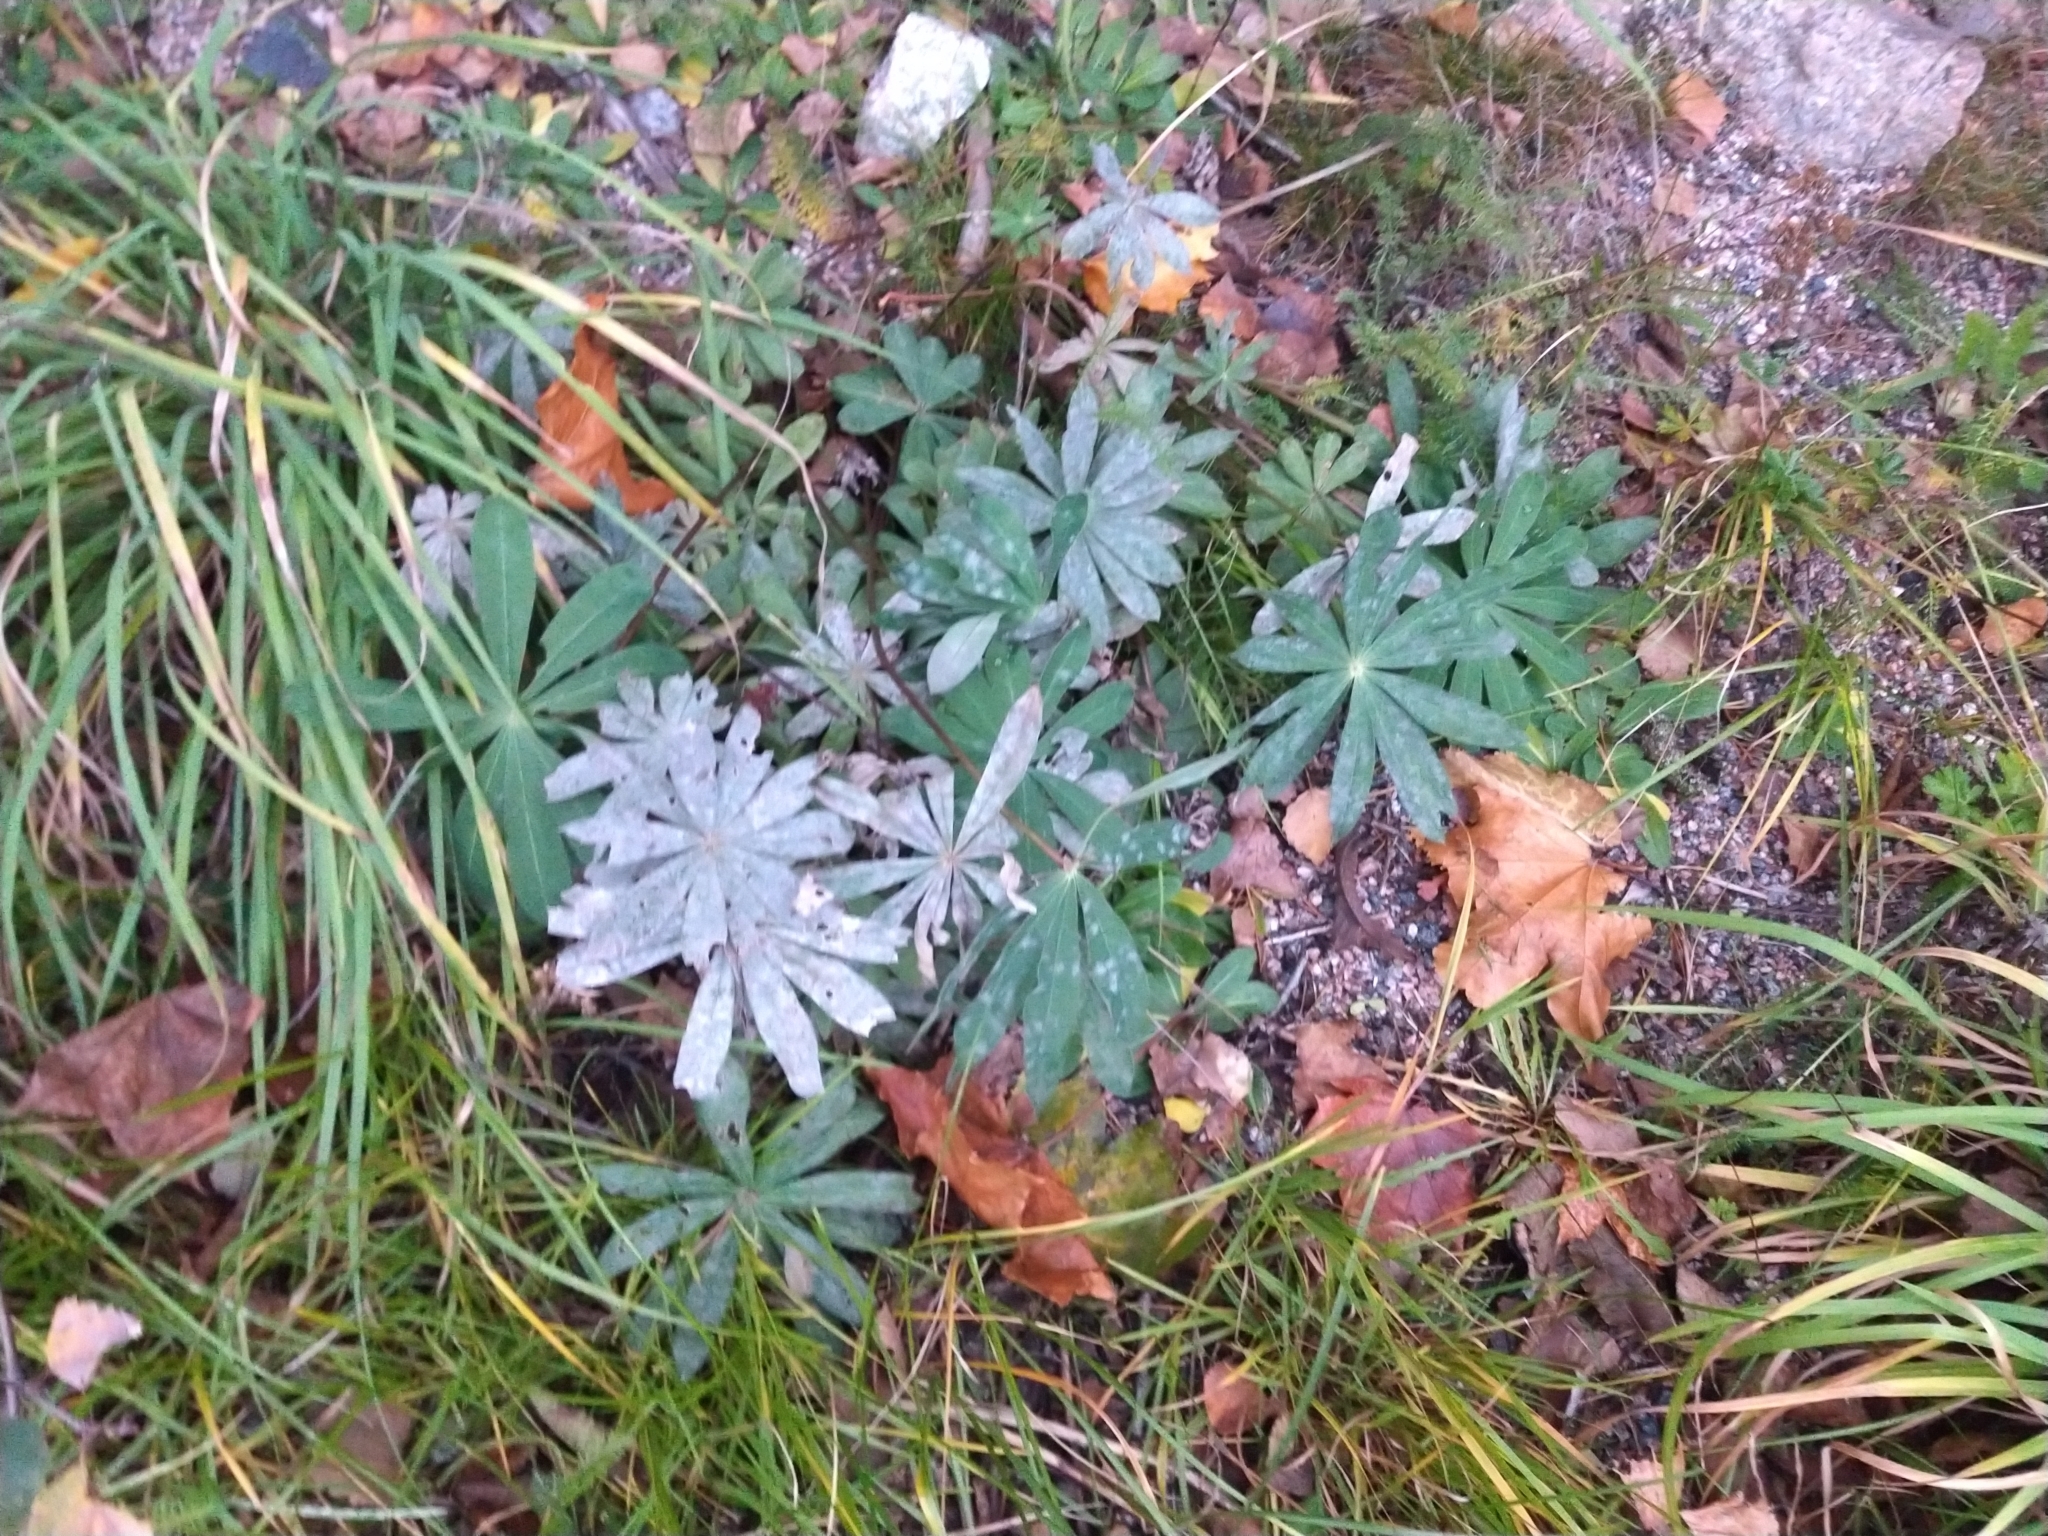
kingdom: Plantae
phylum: Tracheophyta
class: Magnoliopsida
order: Fabales
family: Fabaceae
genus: Lupinus
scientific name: Lupinus polyphyllus
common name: Garden lupin
